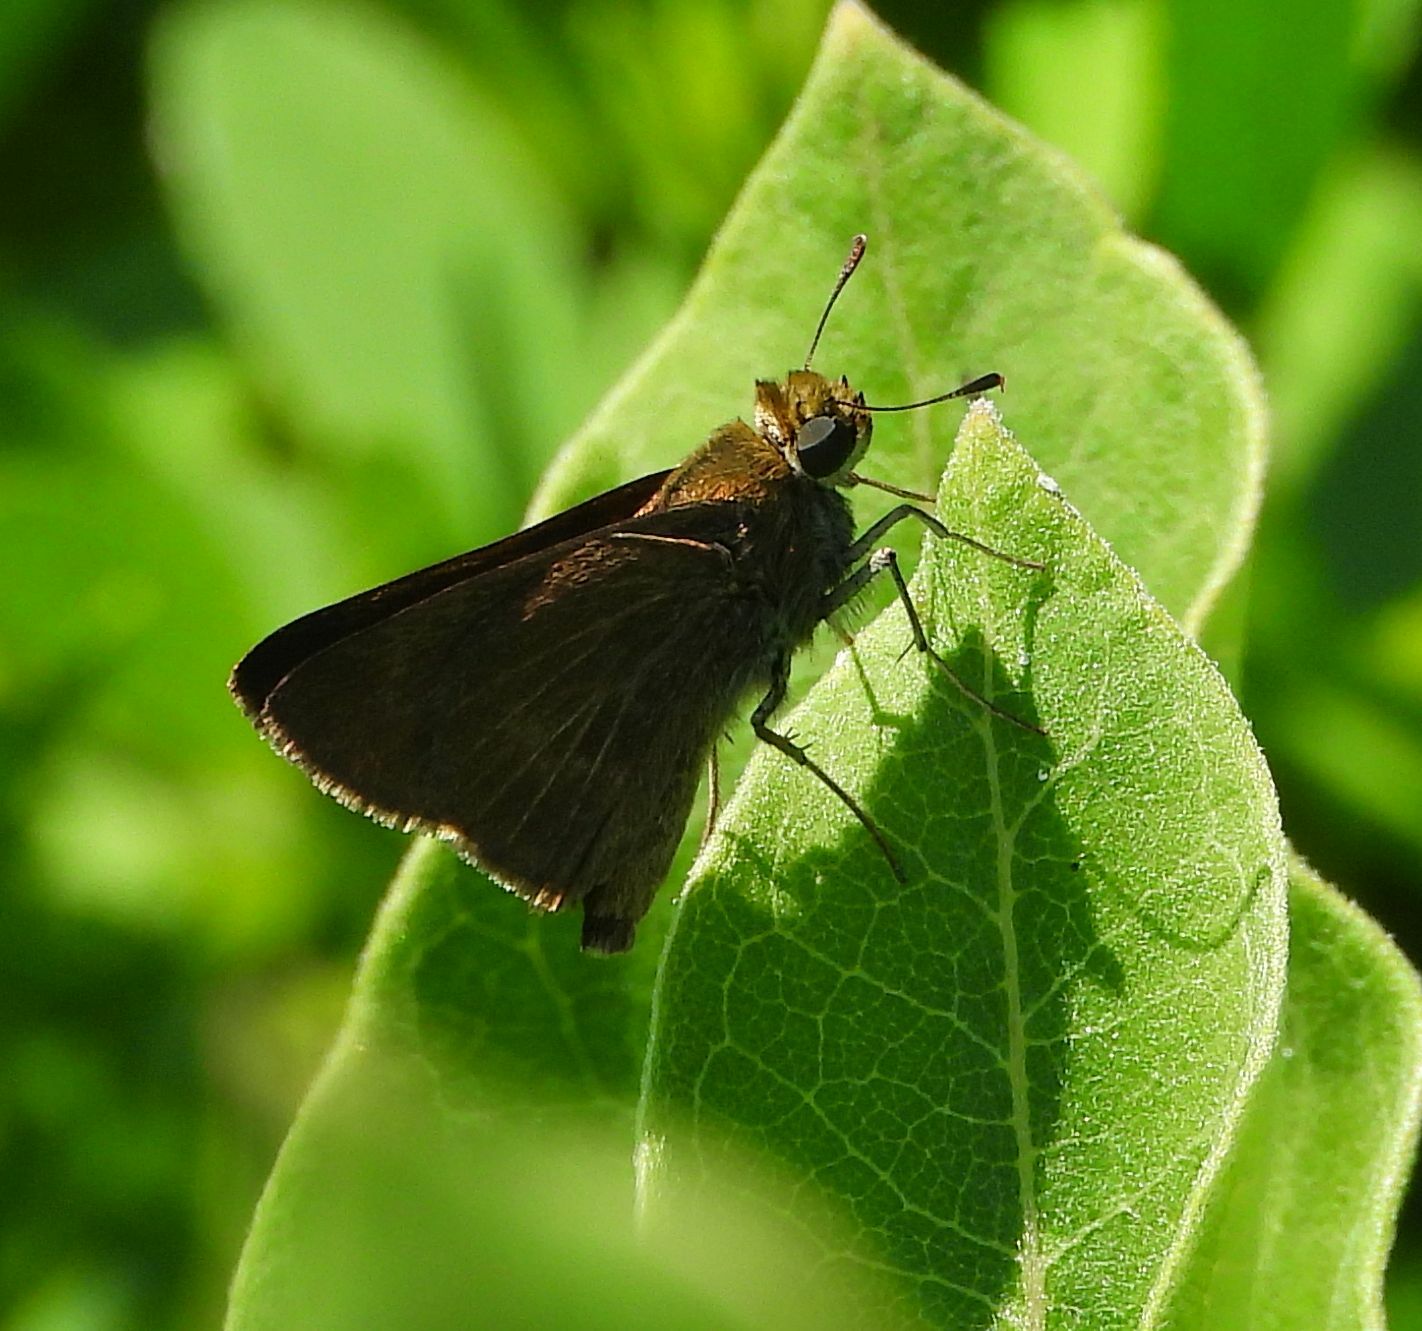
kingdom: Animalia
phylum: Arthropoda
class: Insecta
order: Lepidoptera
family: Hesperiidae
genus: Euphyes
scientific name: Euphyes vestris
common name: Dun skipper
